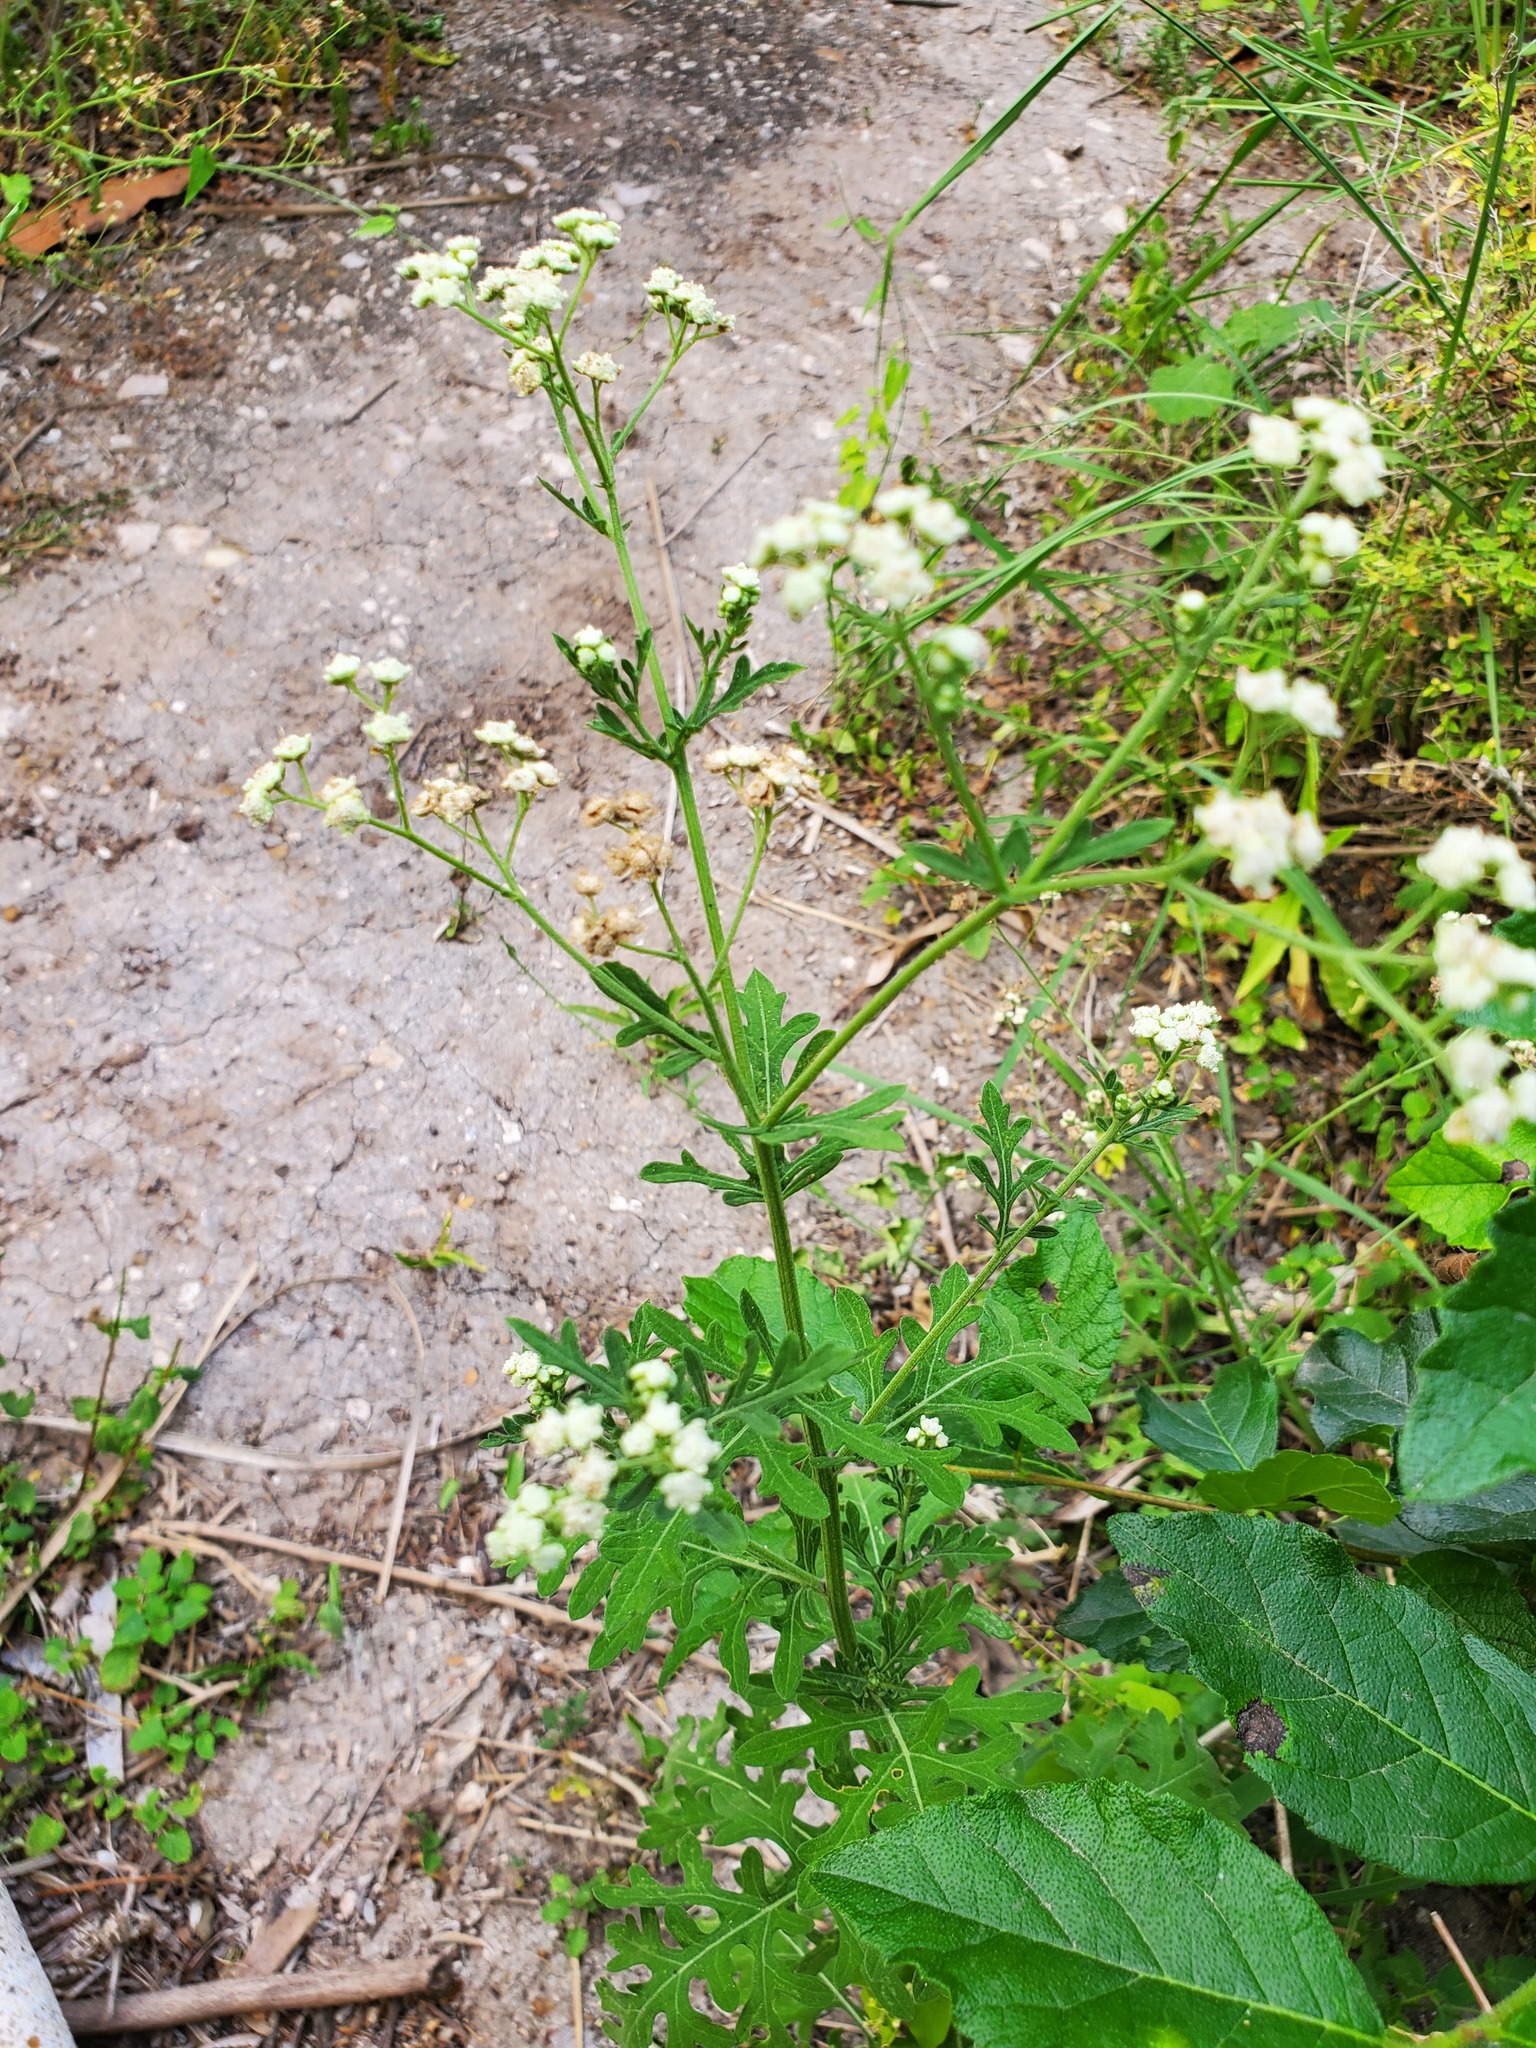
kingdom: Plantae
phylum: Tracheophyta
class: Magnoliopsida
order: Asterales
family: Asteraceae
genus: Parthenium
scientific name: Parthenium hysterophorus
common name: Santa maria feverfew
